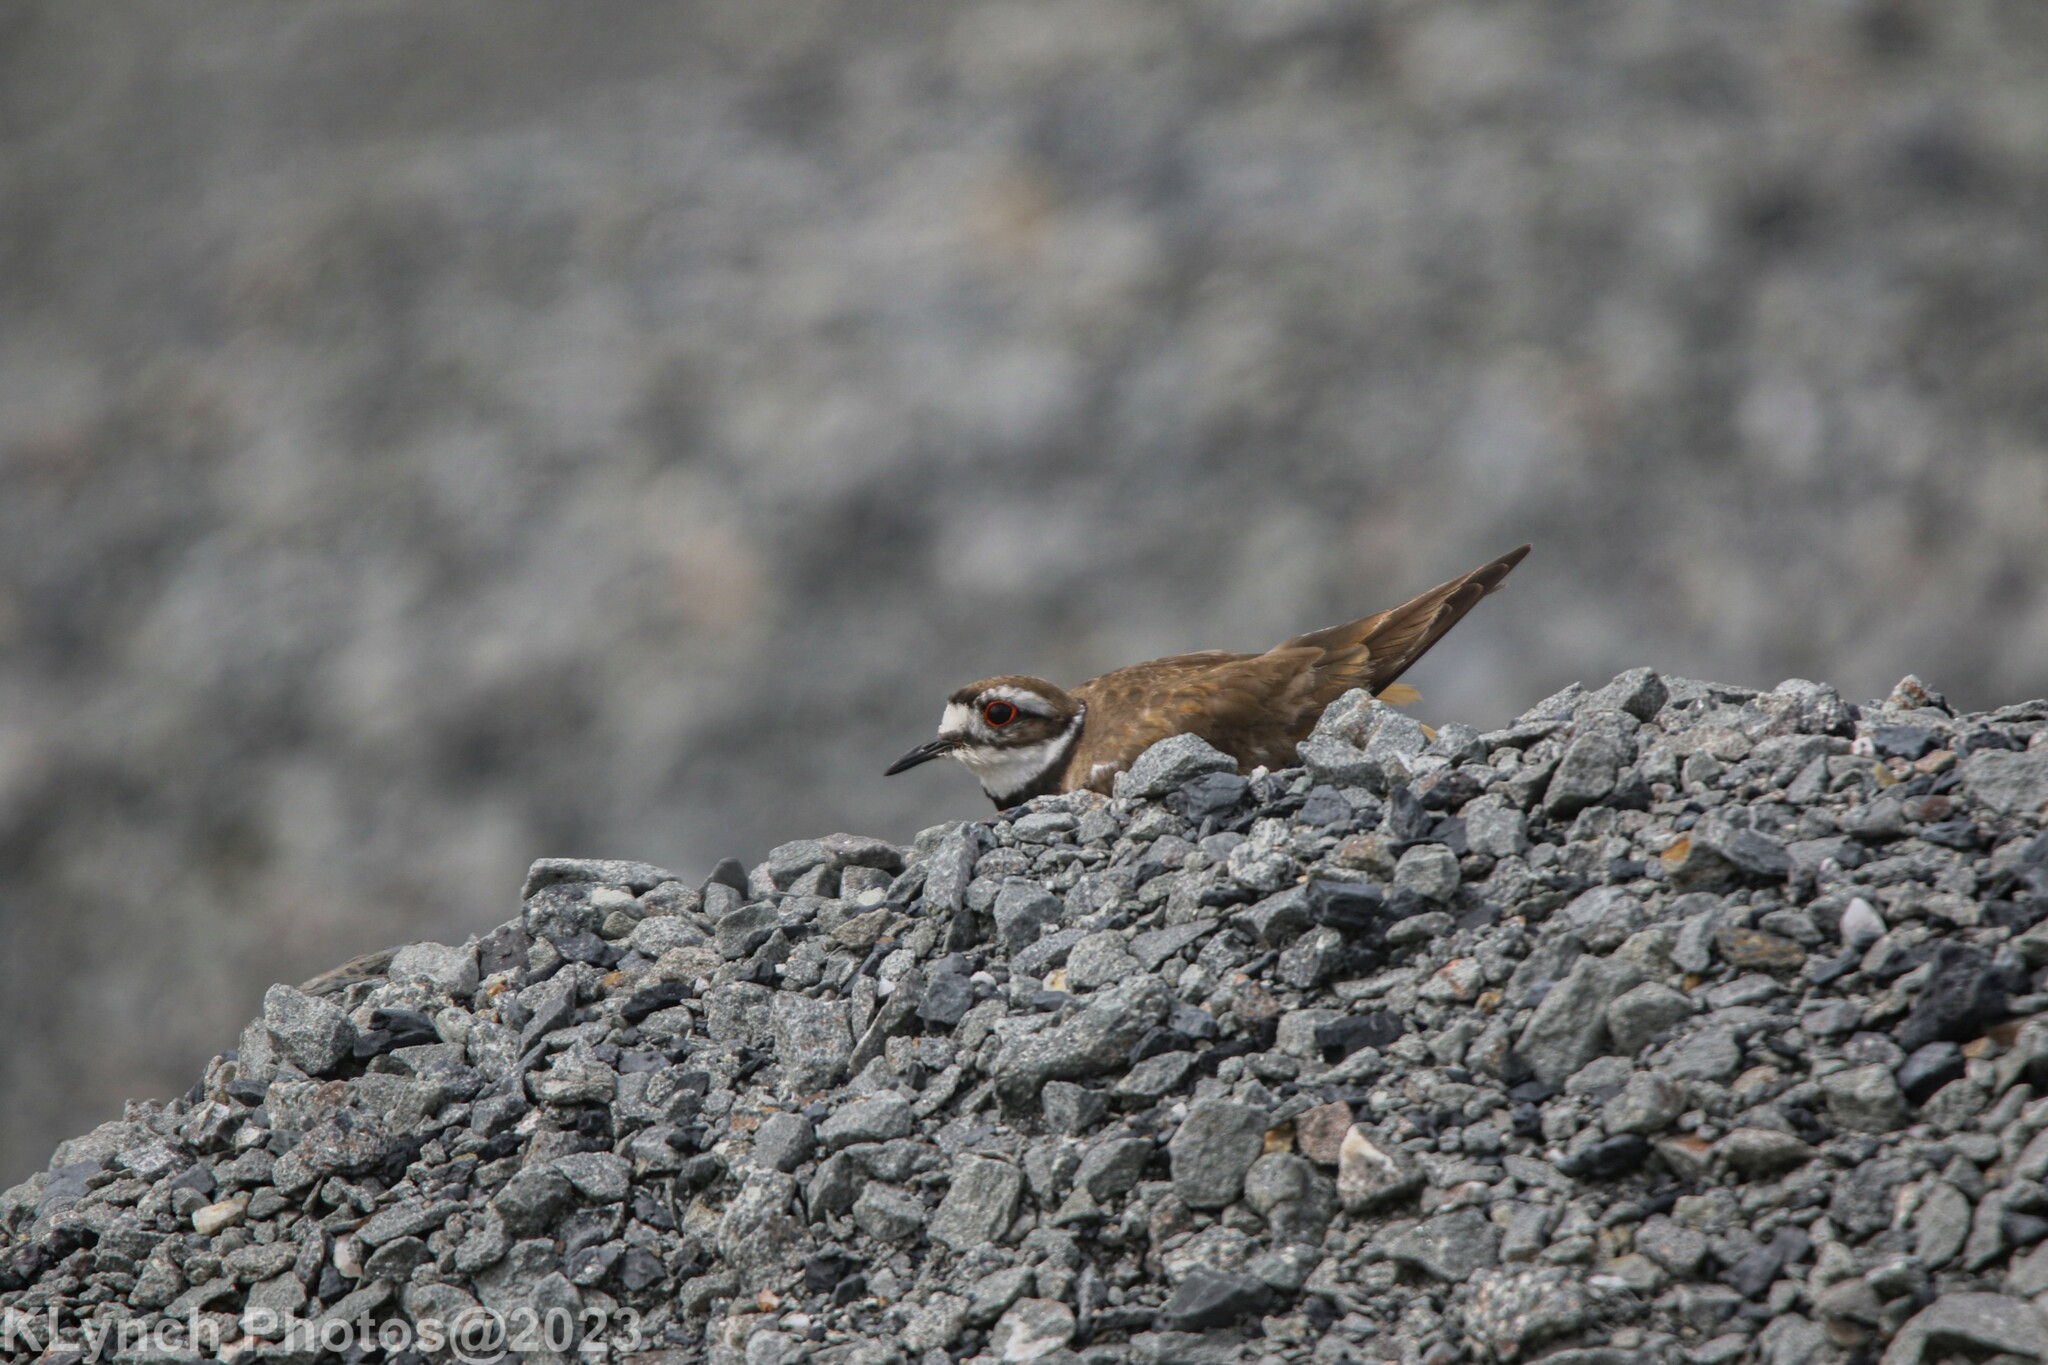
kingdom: Animalia
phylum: Chordata
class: Aves
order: Charadriiformes
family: Charadriidae
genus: Charadrius
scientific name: Charadrius vociferus
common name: Killdeer
